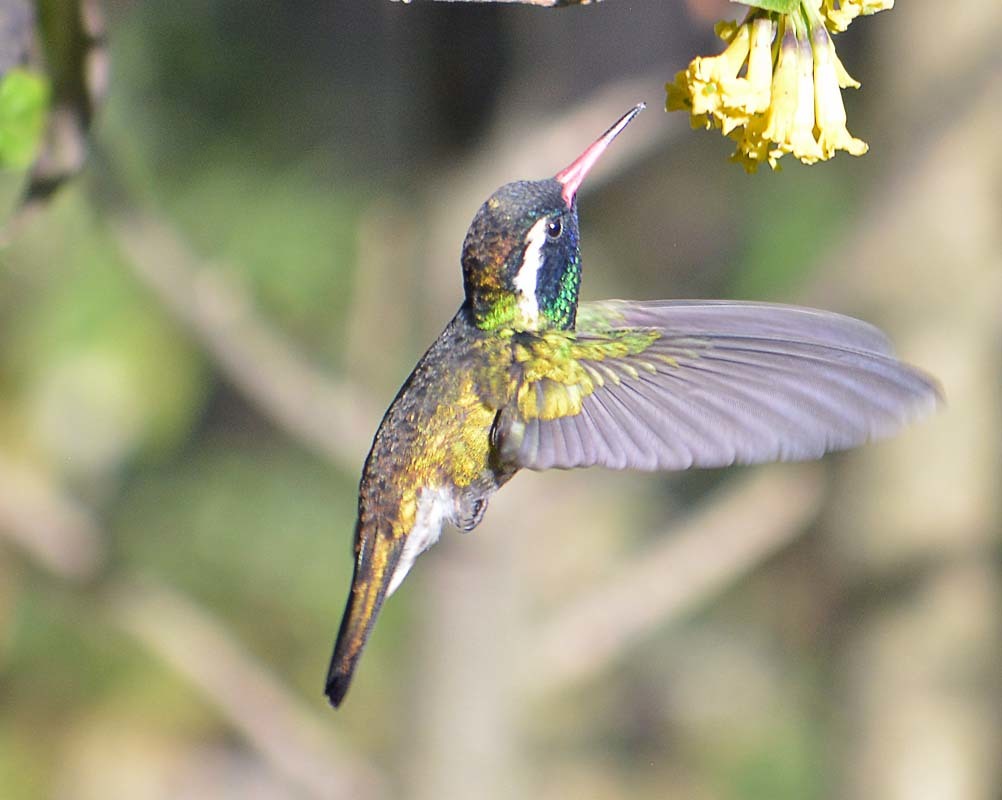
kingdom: Animalia
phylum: Chordata
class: Aves
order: Apodiformes
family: Trochilidae
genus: Basilinna
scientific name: Basilinna leucotis
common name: White-eared hummingbird
